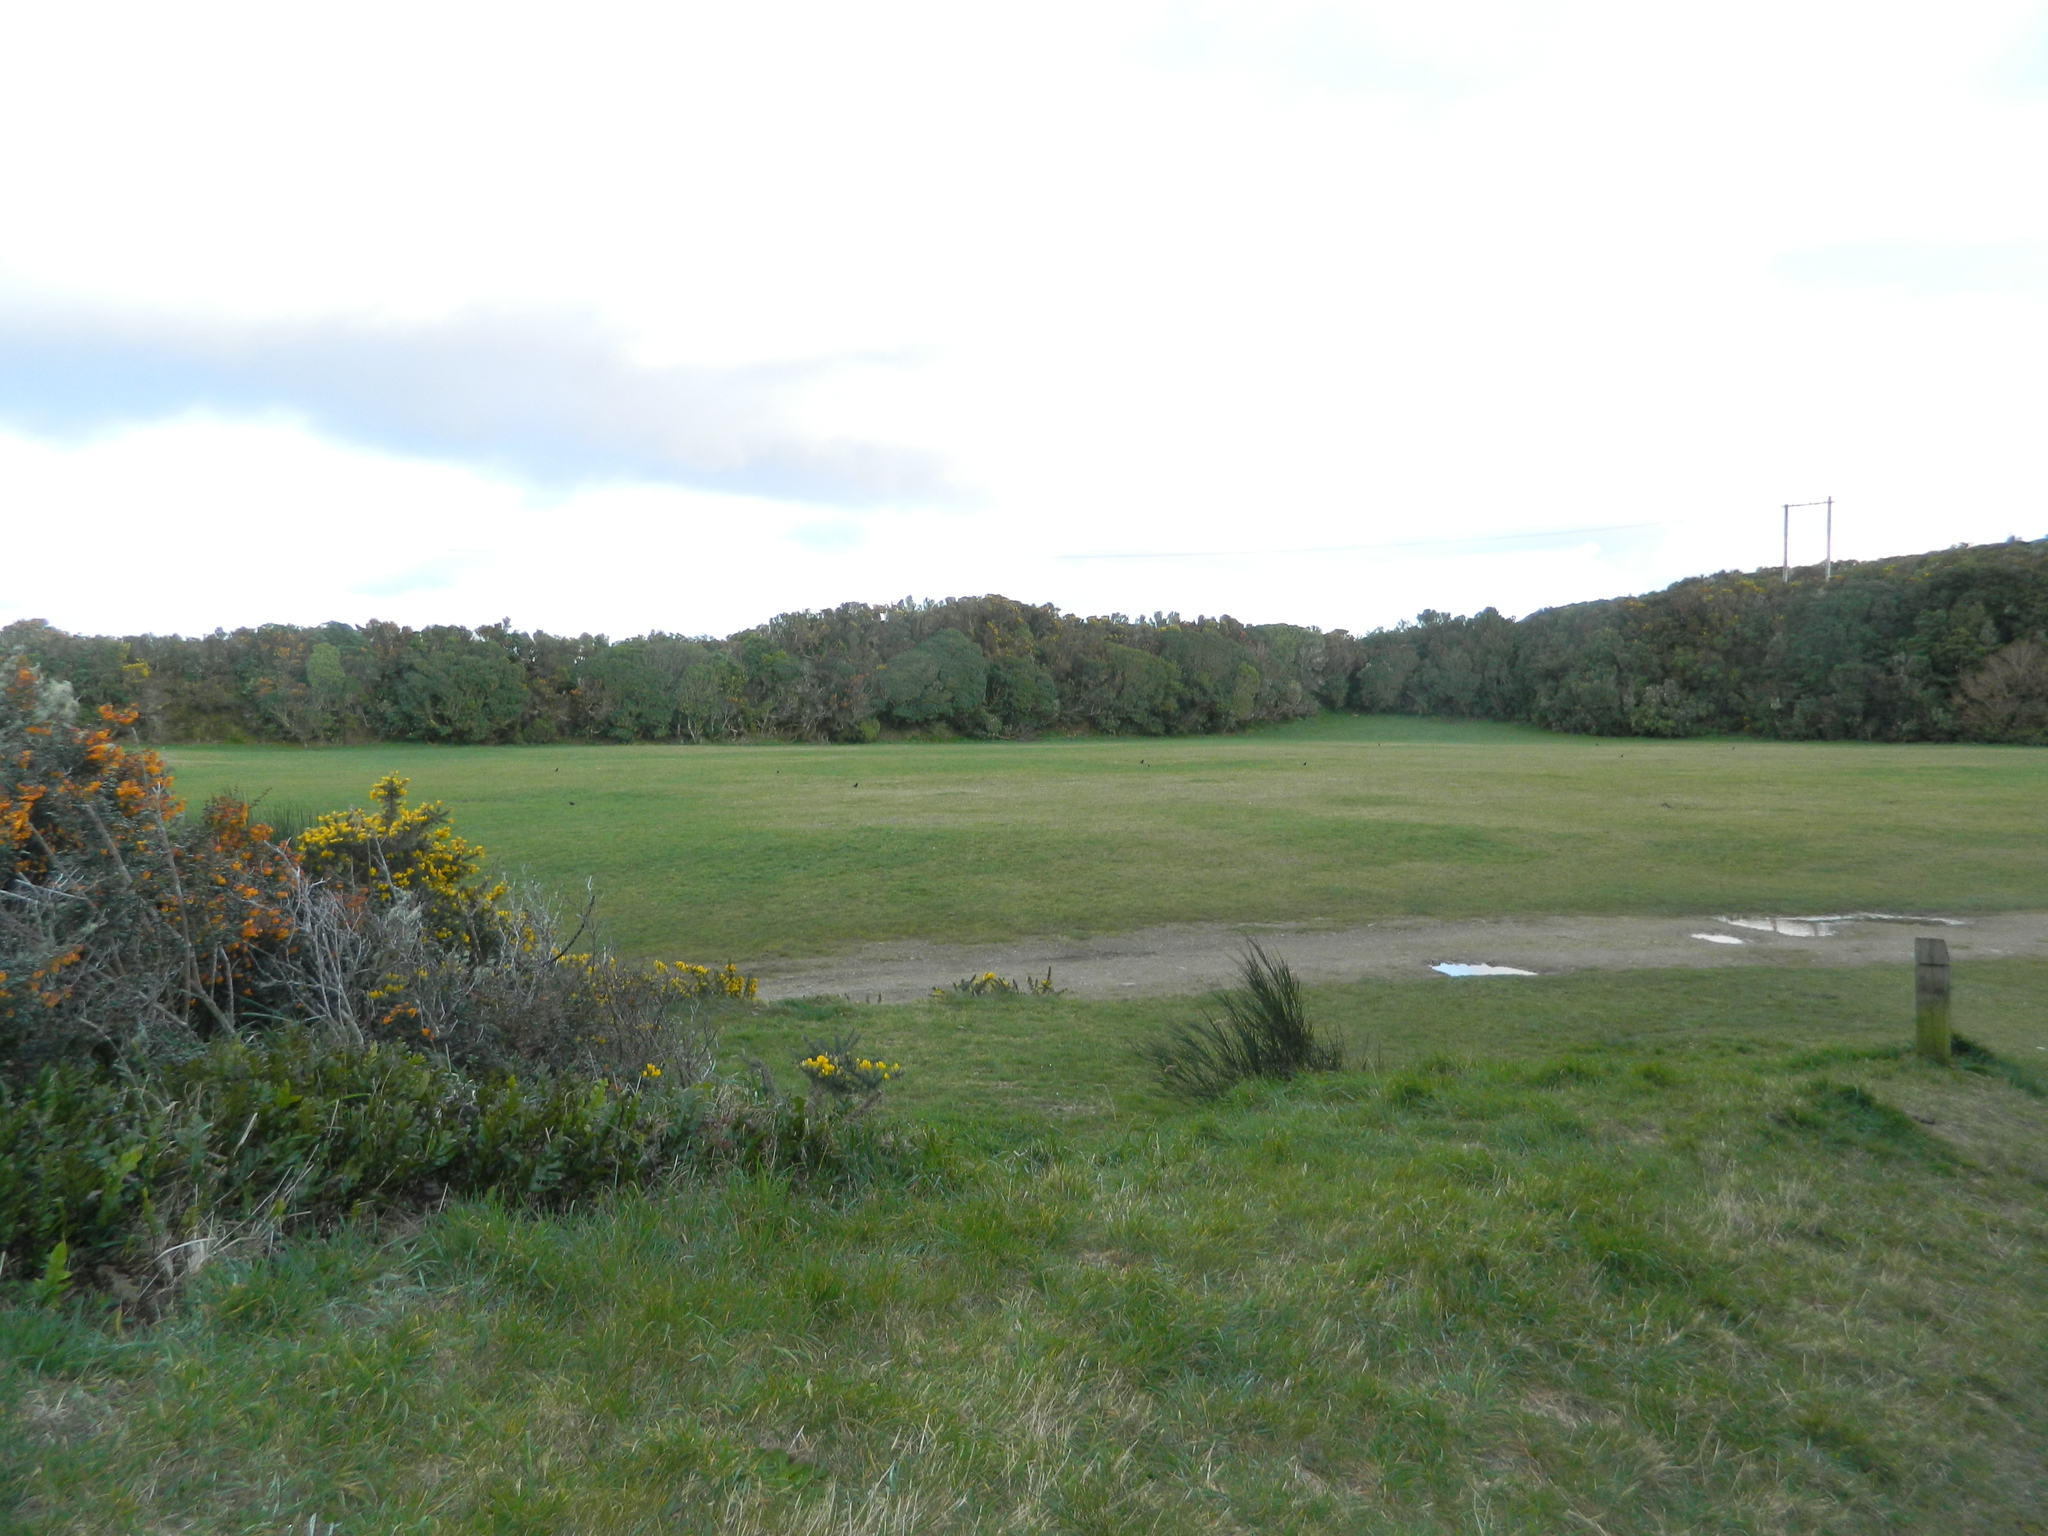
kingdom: Animalia
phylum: Chordata
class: Aves
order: Passeriformes
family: Turdidae
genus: Turdus
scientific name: Turdus merula
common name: Common blackbird
